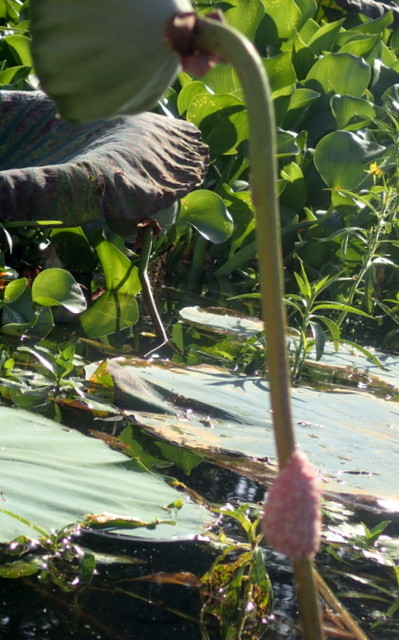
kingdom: Animalia
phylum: Mollusca
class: Gastropoda
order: Architaenioglossa
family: Ampullariidae
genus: Pomacea
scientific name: Pomacea maculata
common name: Giant applesnail
